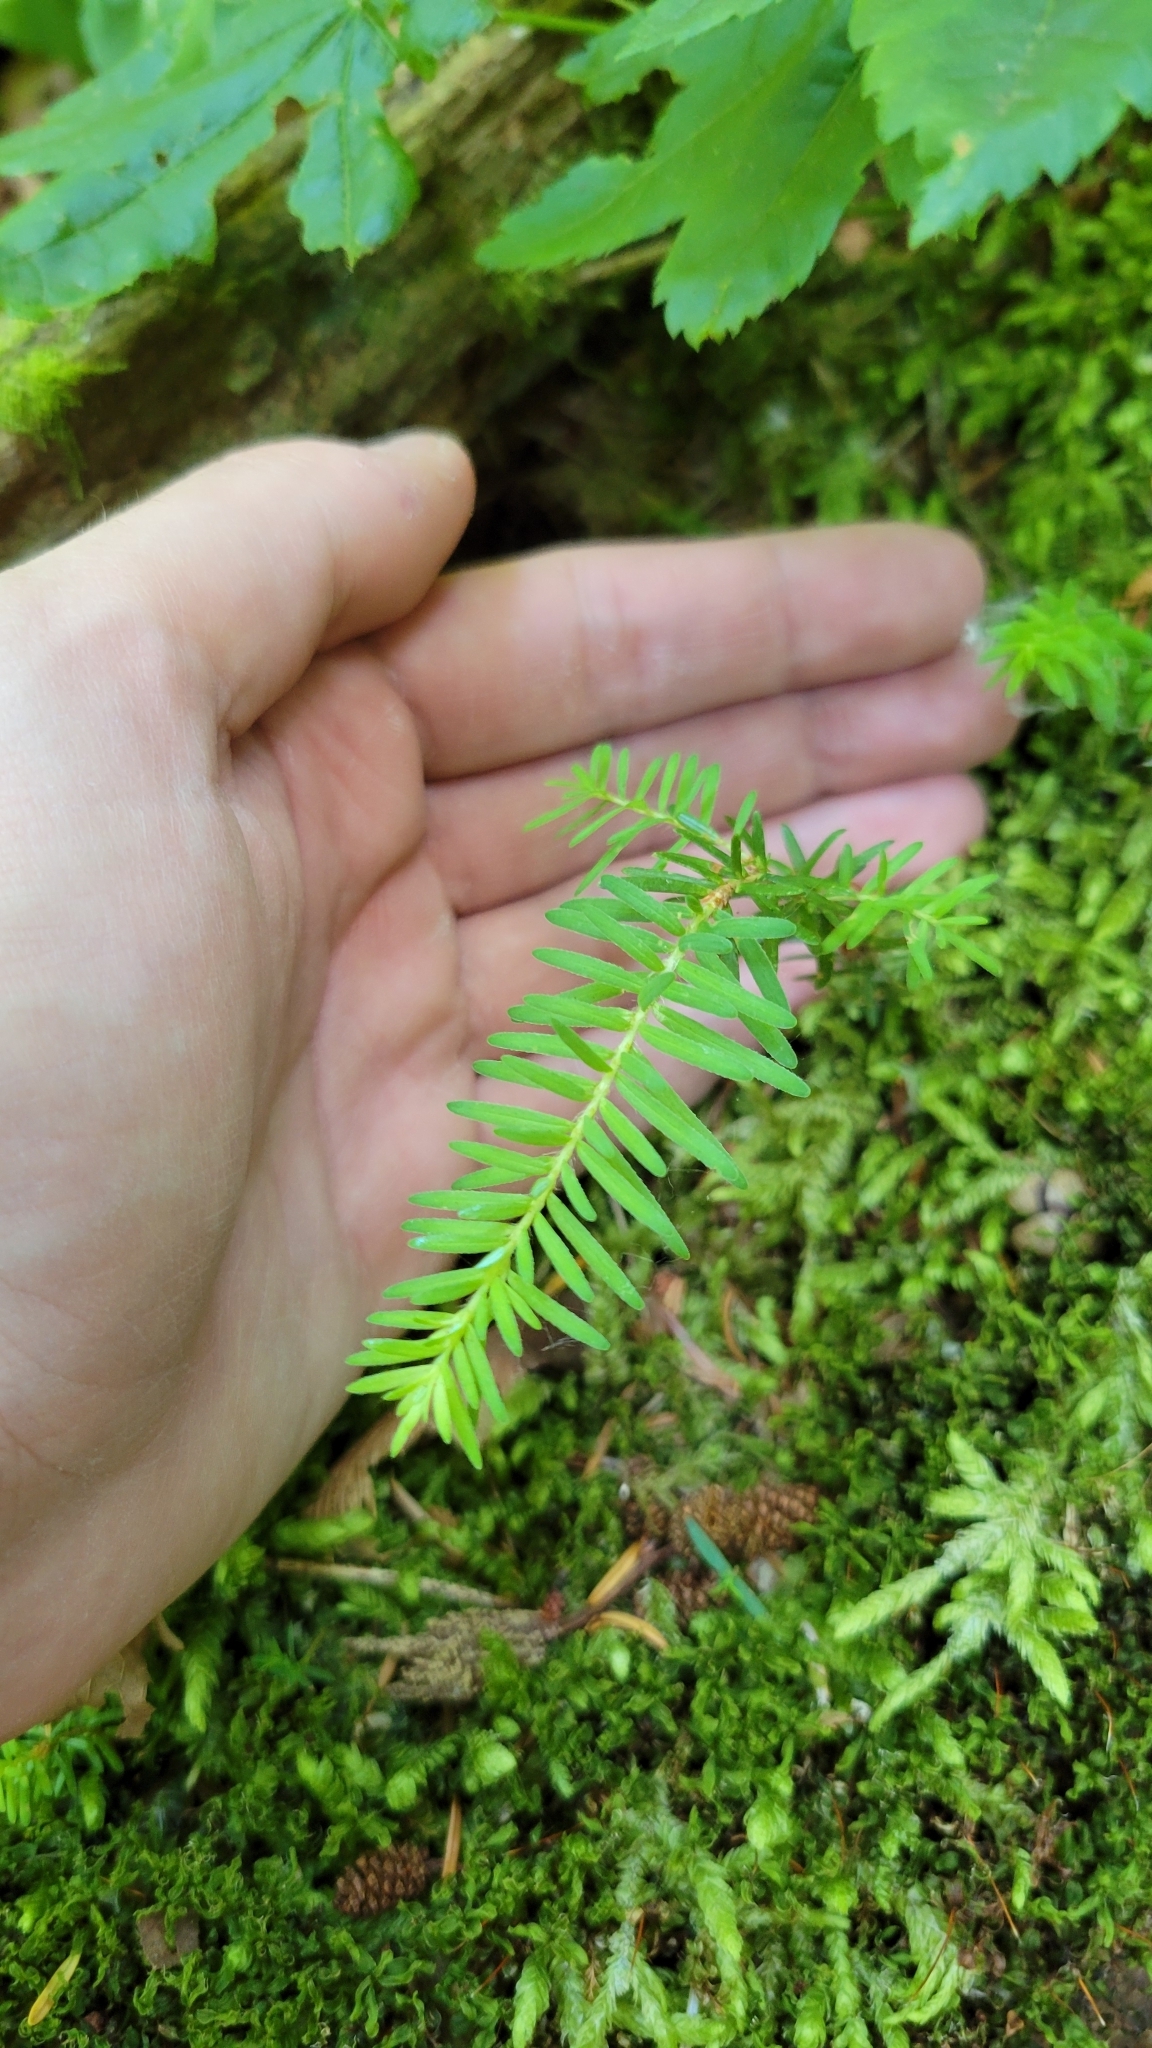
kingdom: Plantae
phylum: Tracheophyta
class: Pinopsida
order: Pinales
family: Pinaceae
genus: Tsuga
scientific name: Tsuga heterophylla
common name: Western hemlock
